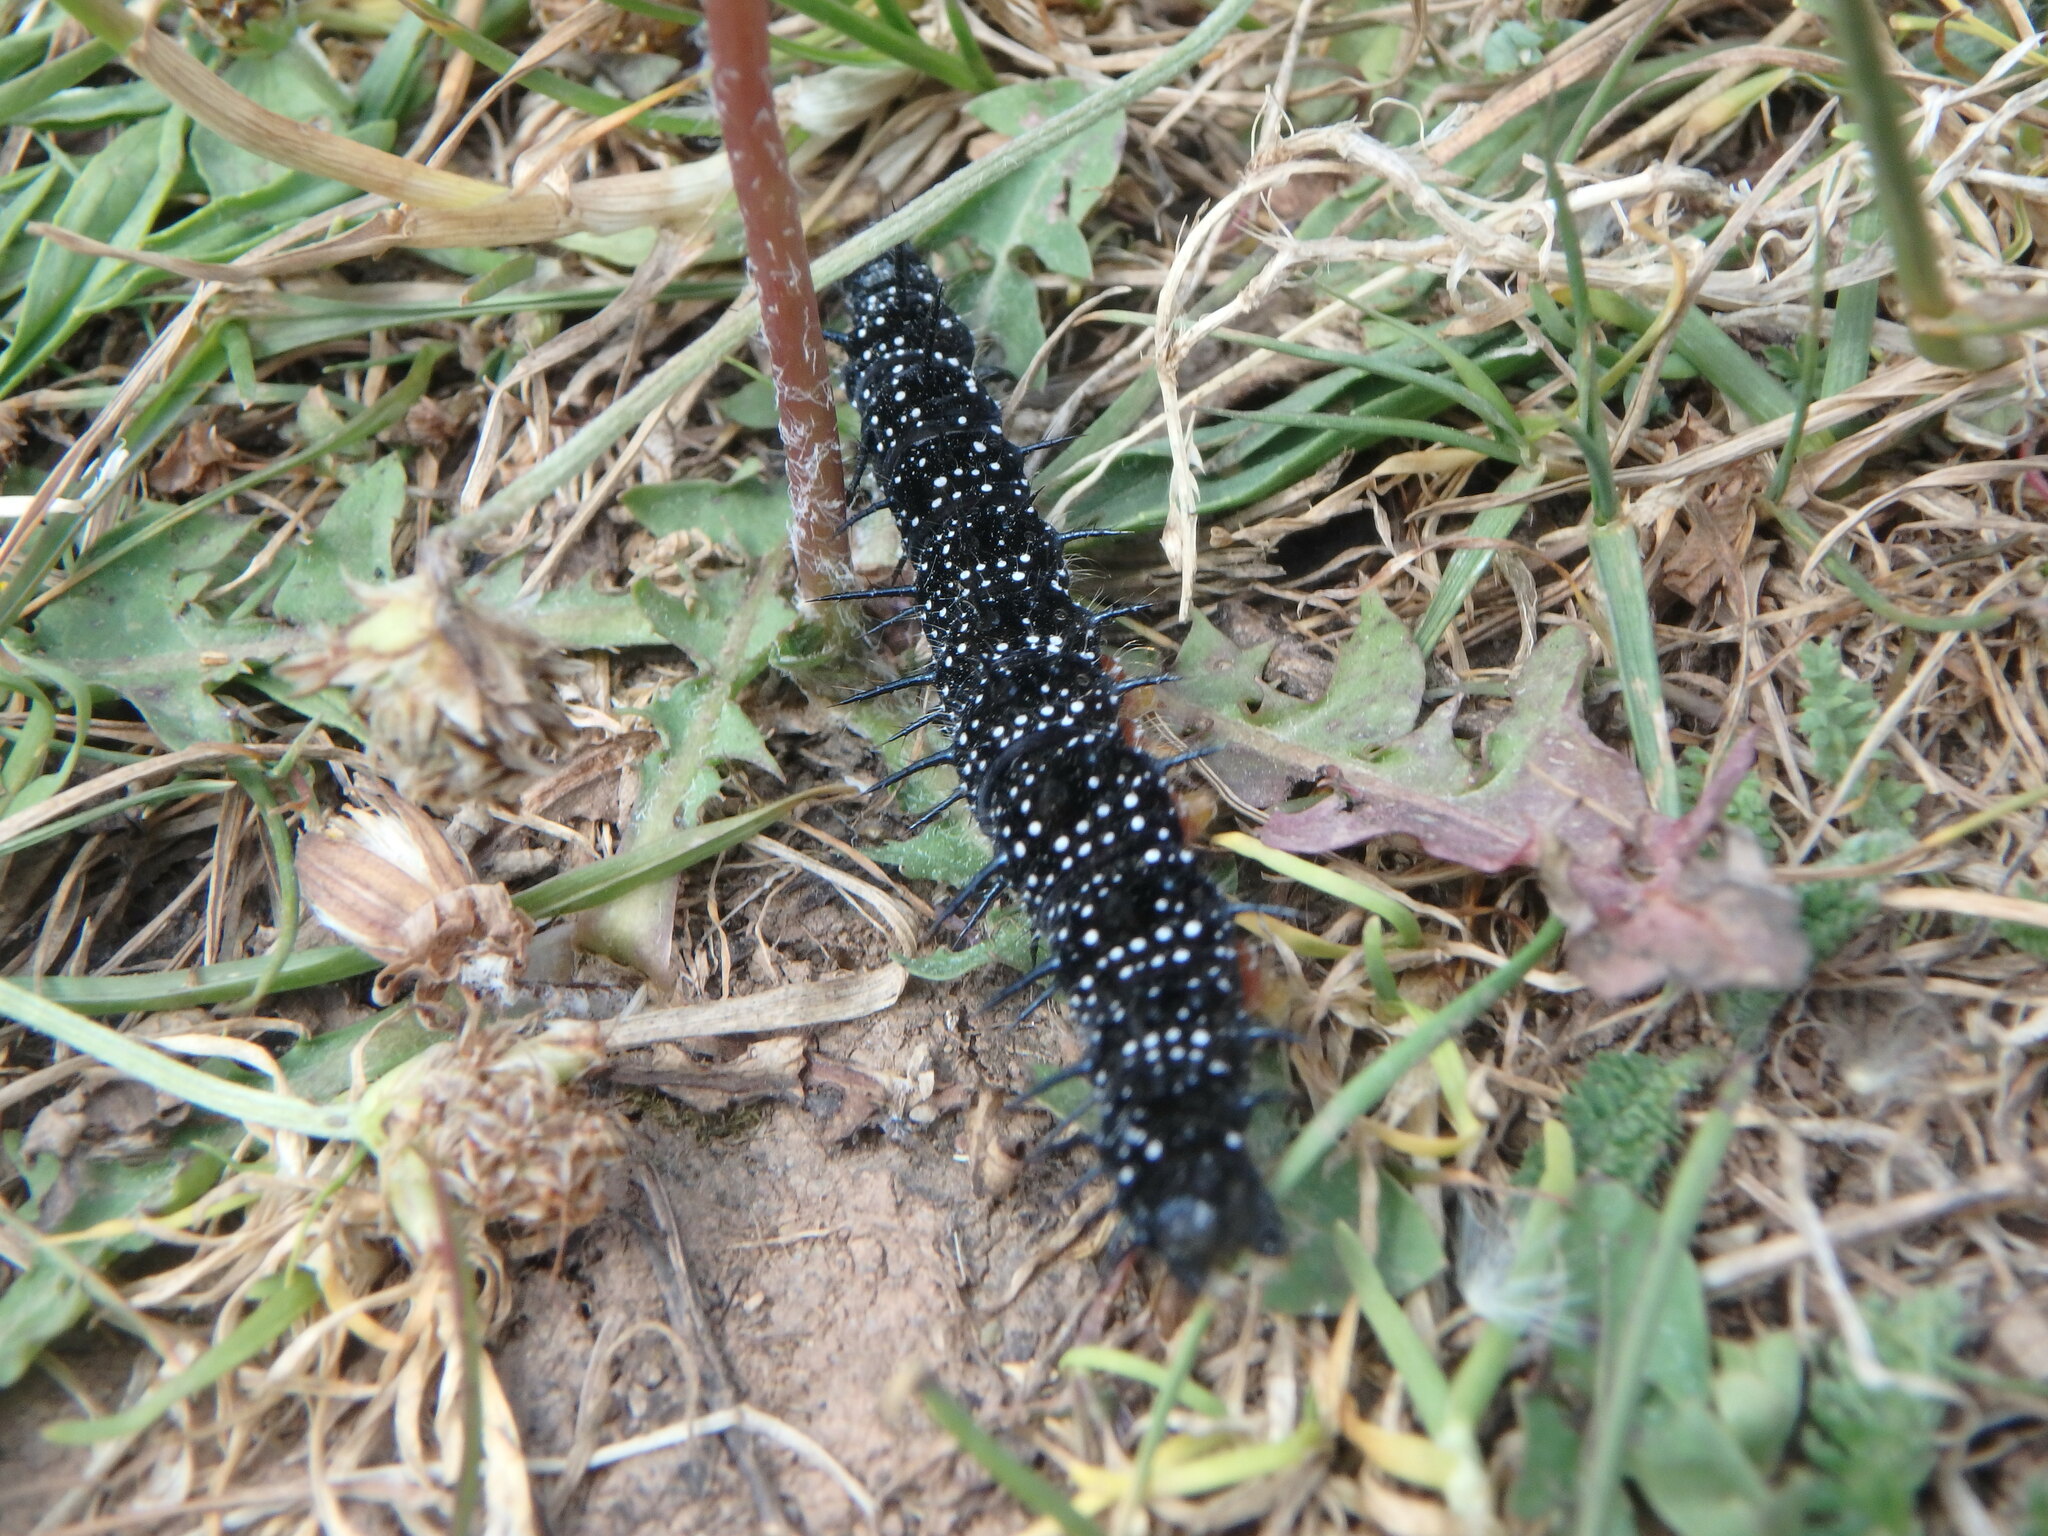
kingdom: Animalia
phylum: Arthropoda
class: Insecta
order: Lepidoptera
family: Nymphalidae
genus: Aglais
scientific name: Aglais io
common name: Peacock
